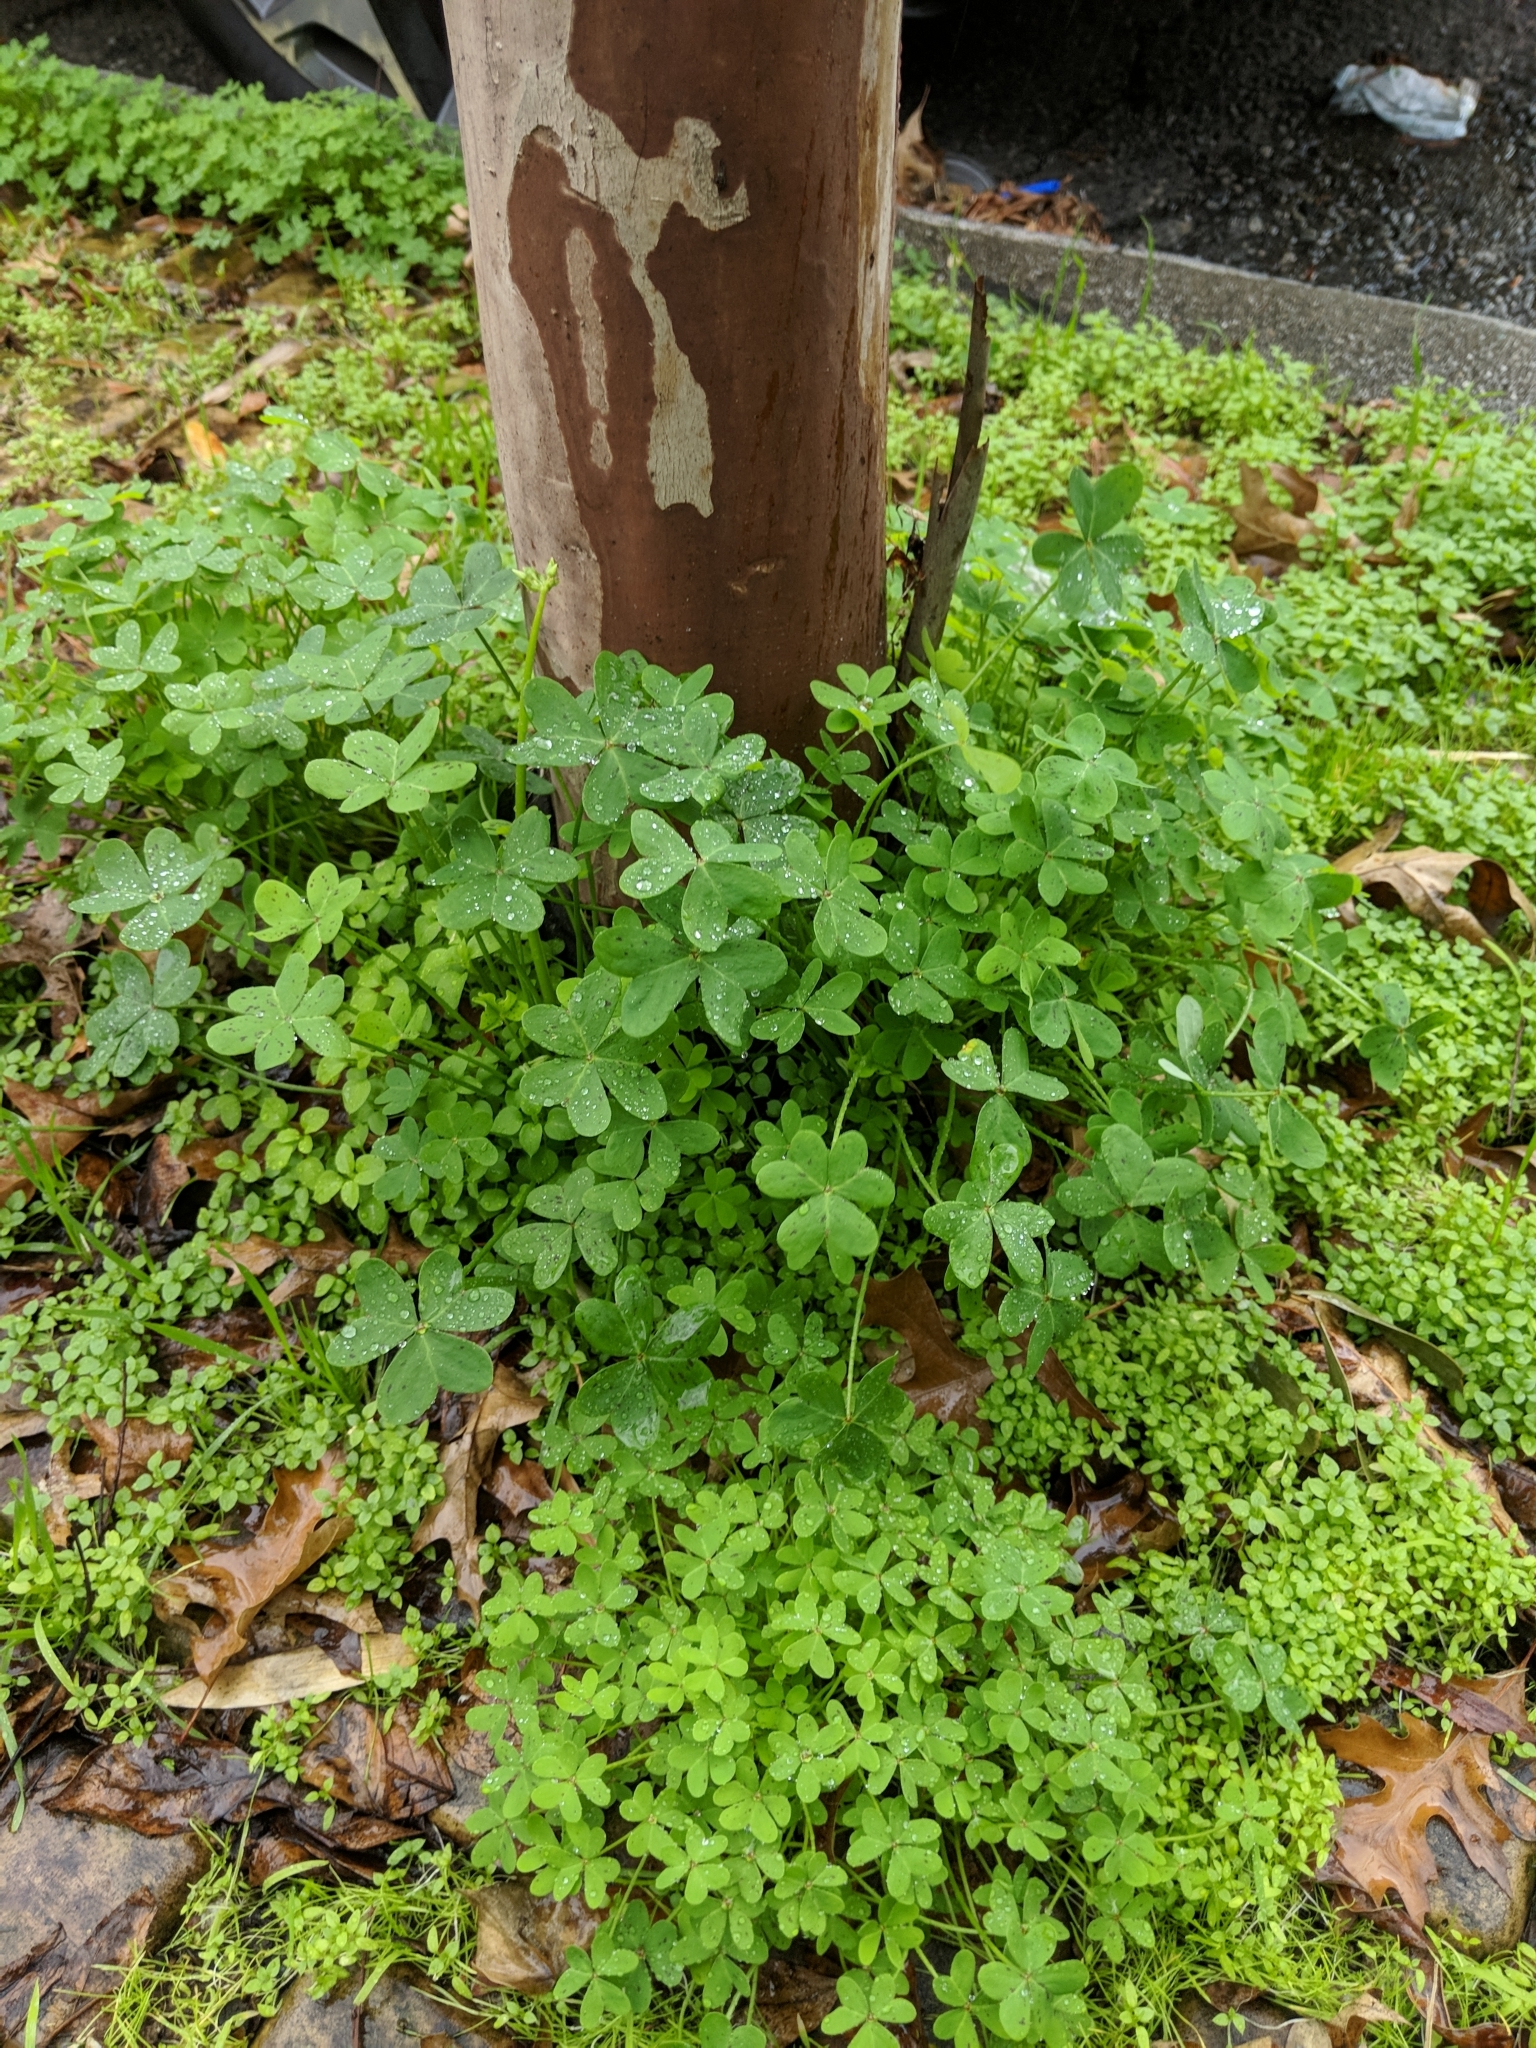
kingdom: Plantae
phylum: Tracheophyta
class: Magnoliopsida
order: Oxalidales
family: Oxalidaceae
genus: Oxalis
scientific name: Oxalis pes-caprae
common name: Bermuda-buttercup
